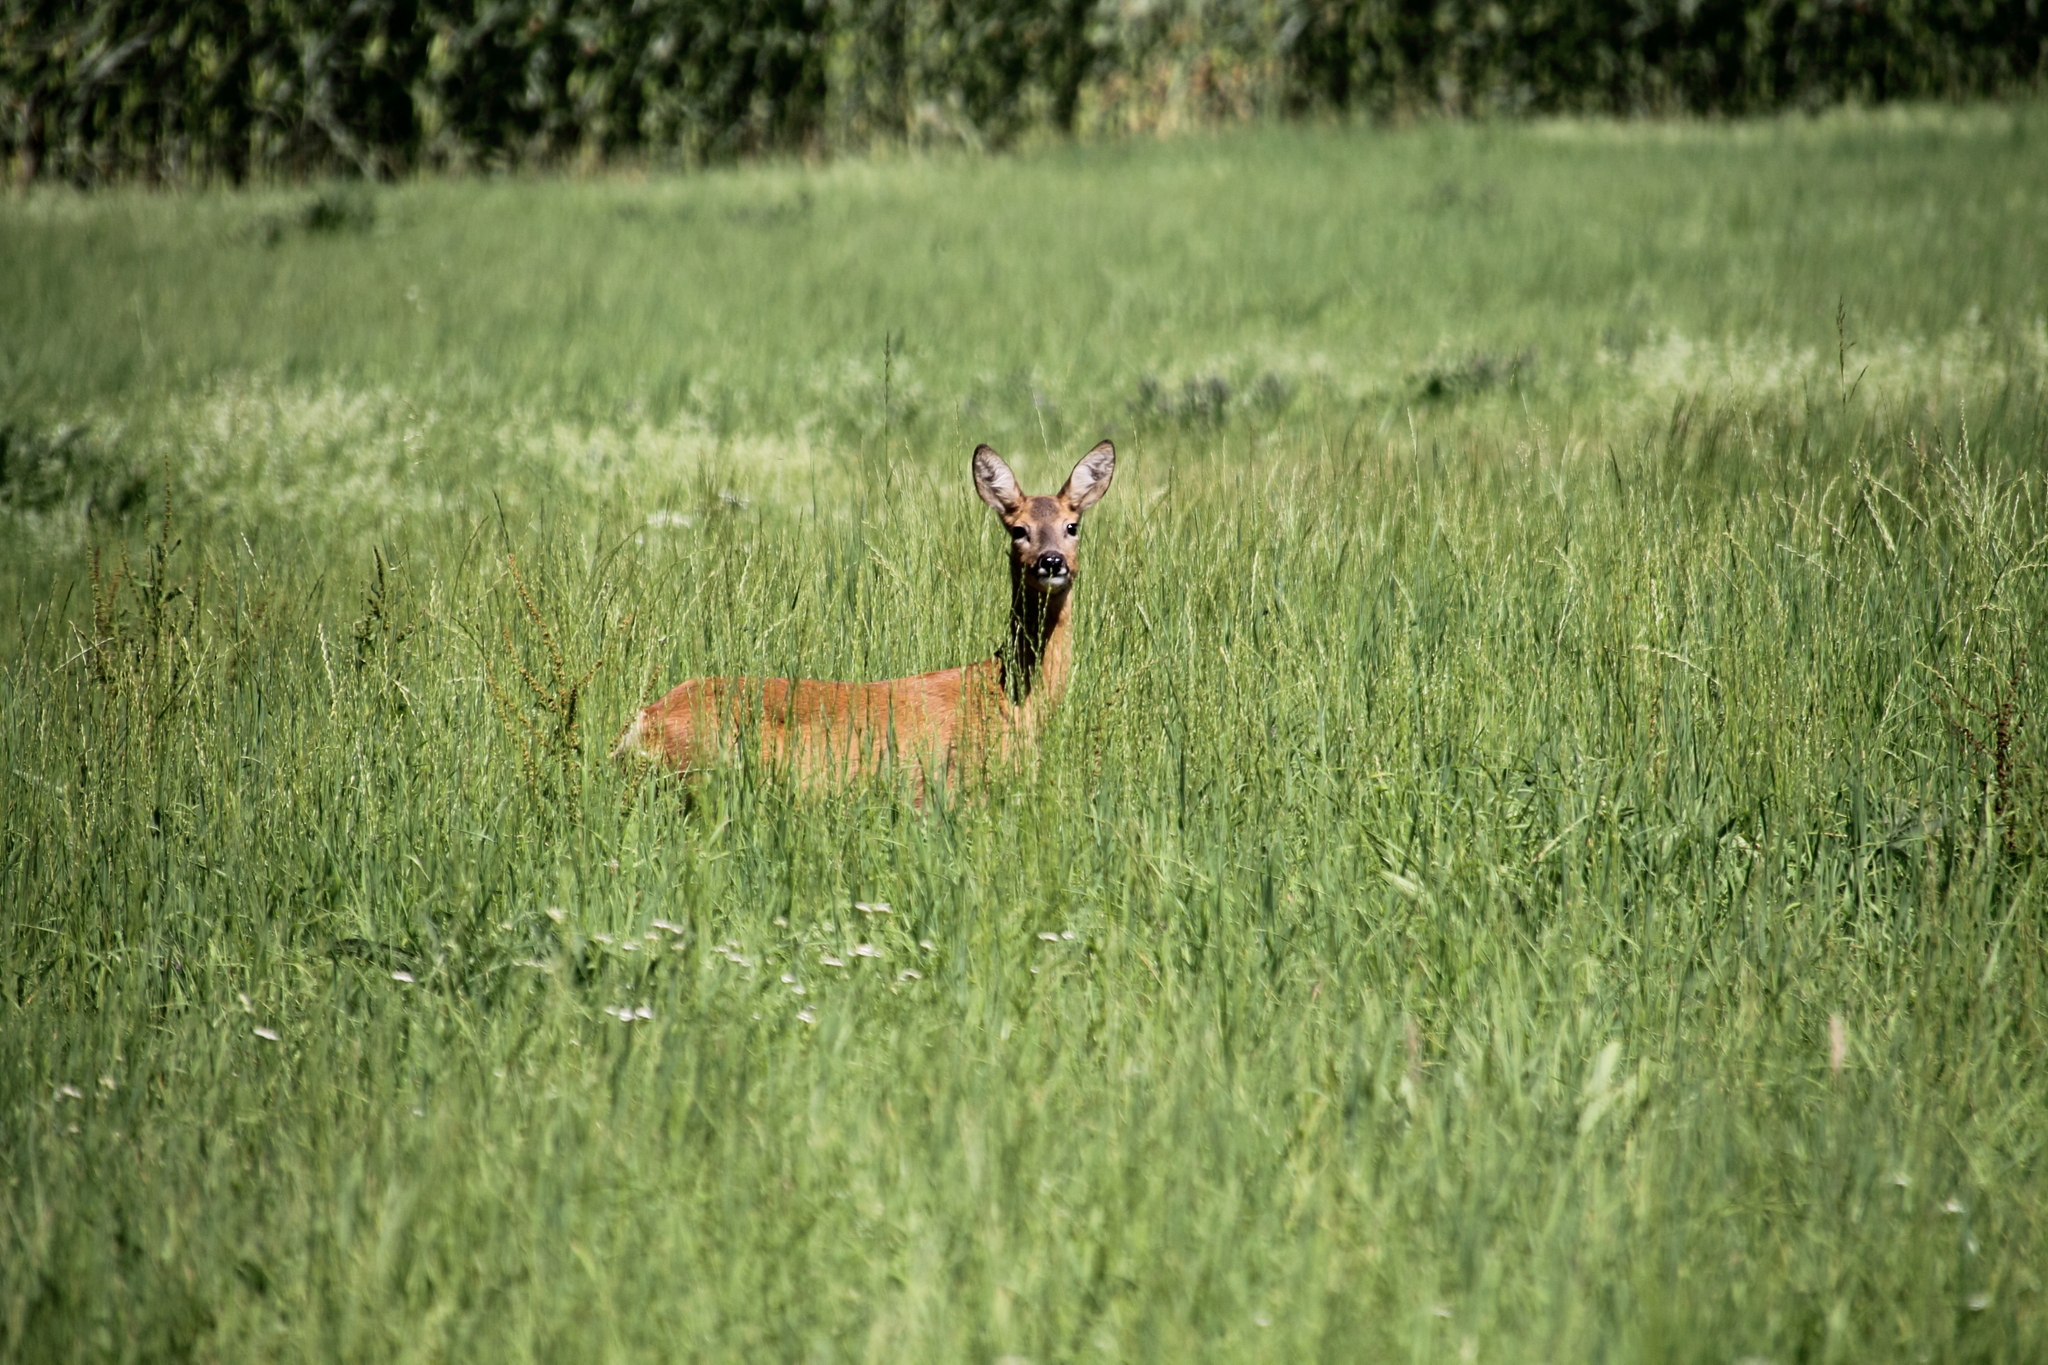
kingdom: Animalia
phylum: Chordata
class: Mammalia
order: Artiodactyla
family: Cervidae
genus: Capreolus
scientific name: Capreolus capreolus
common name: Western roe deer
